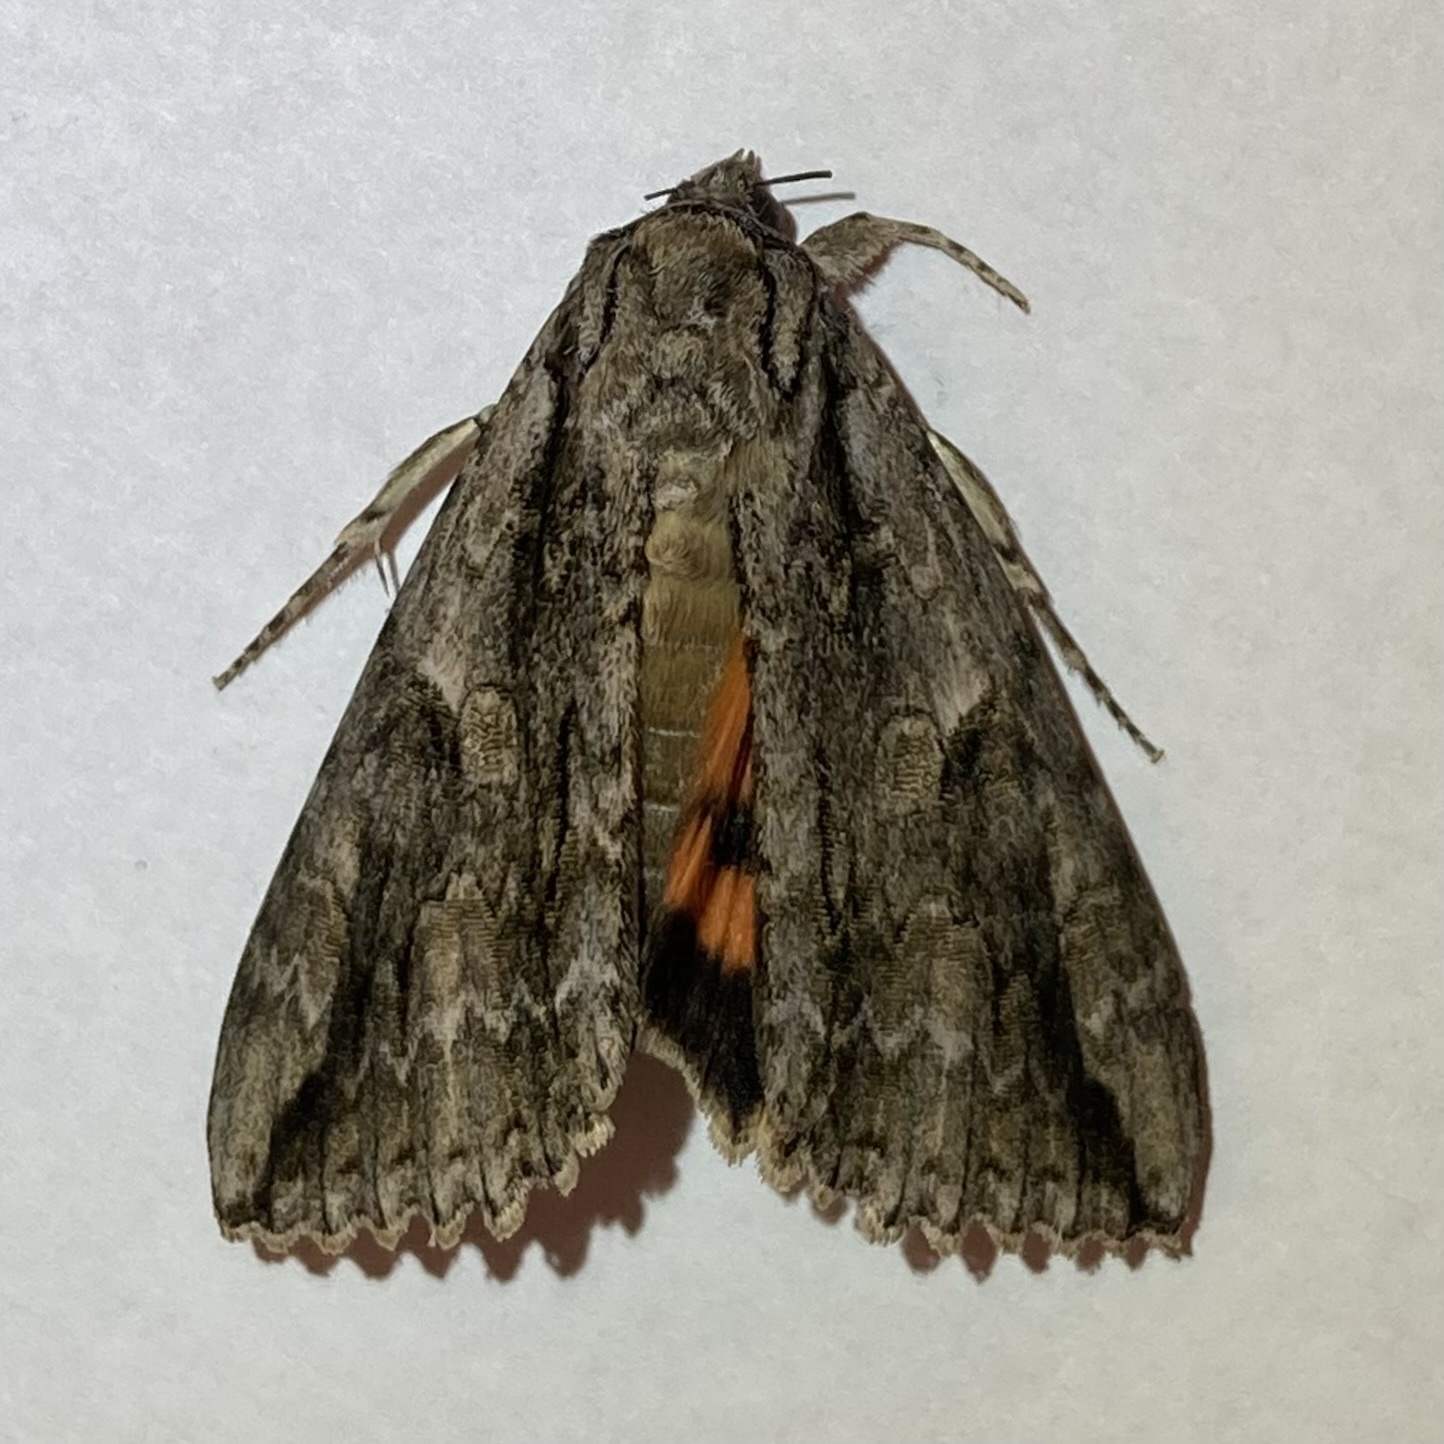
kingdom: Animalia
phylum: Arthropoda
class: Insecta
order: Lepidoptera
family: Erebidae
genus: Catocala
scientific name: Catocala parta
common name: Mother underwing
